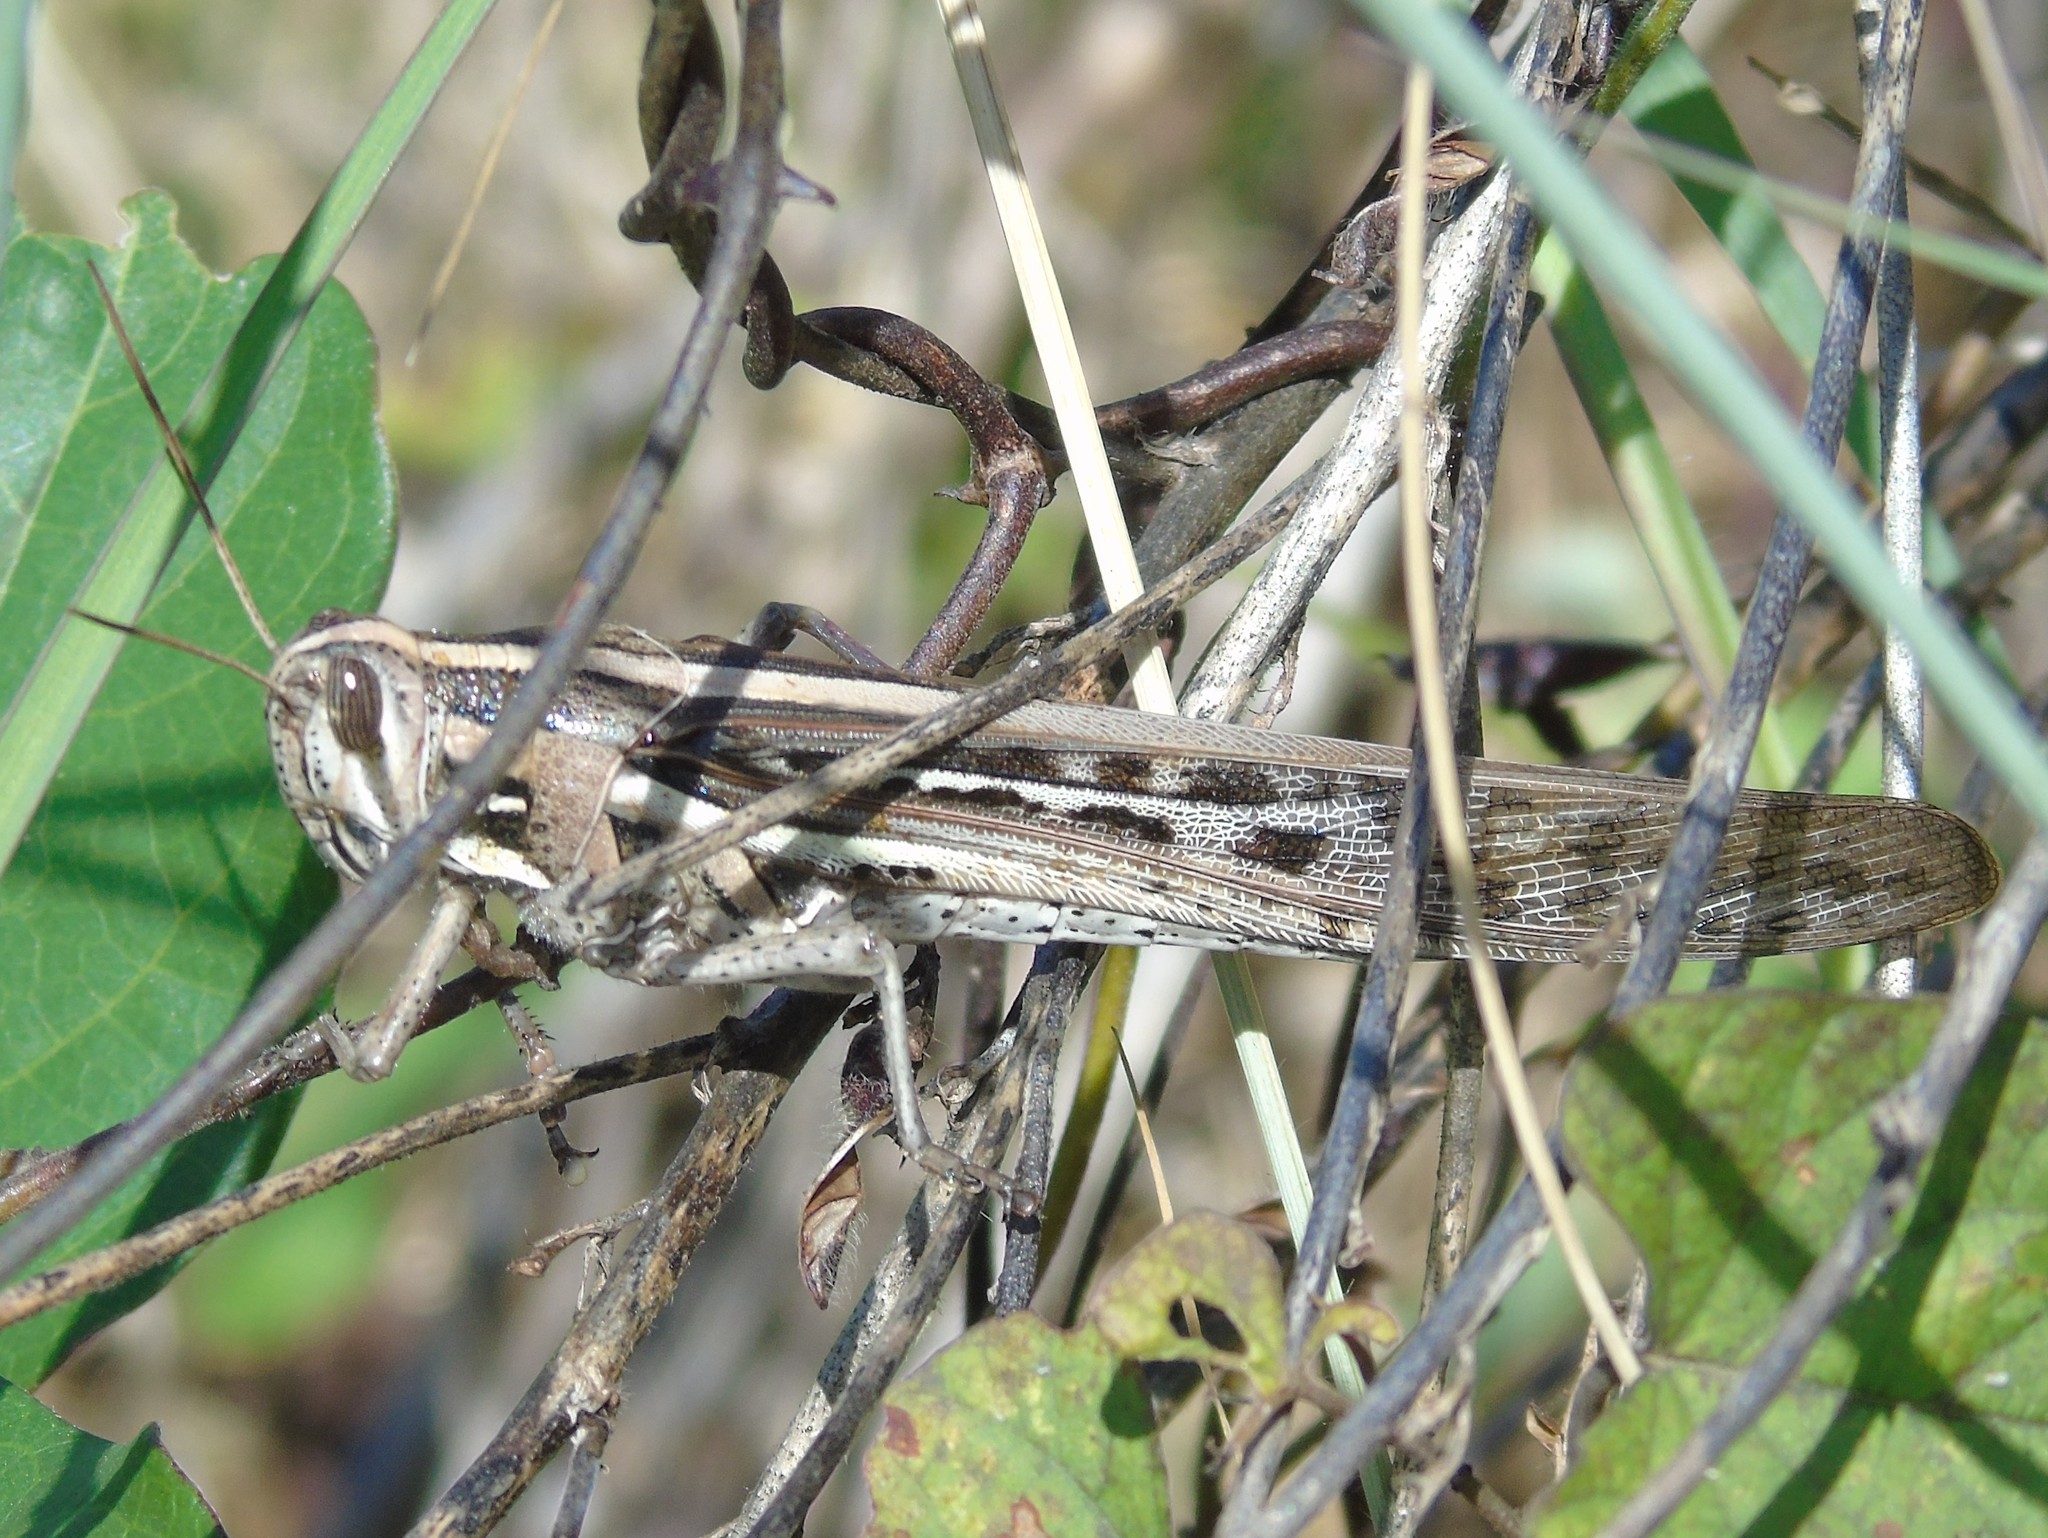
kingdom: Animalia
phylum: Arthropoda
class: Insecta
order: Orthoptera
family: Acrididae
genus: Schistocerca
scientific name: Schistocerca piceifrons
